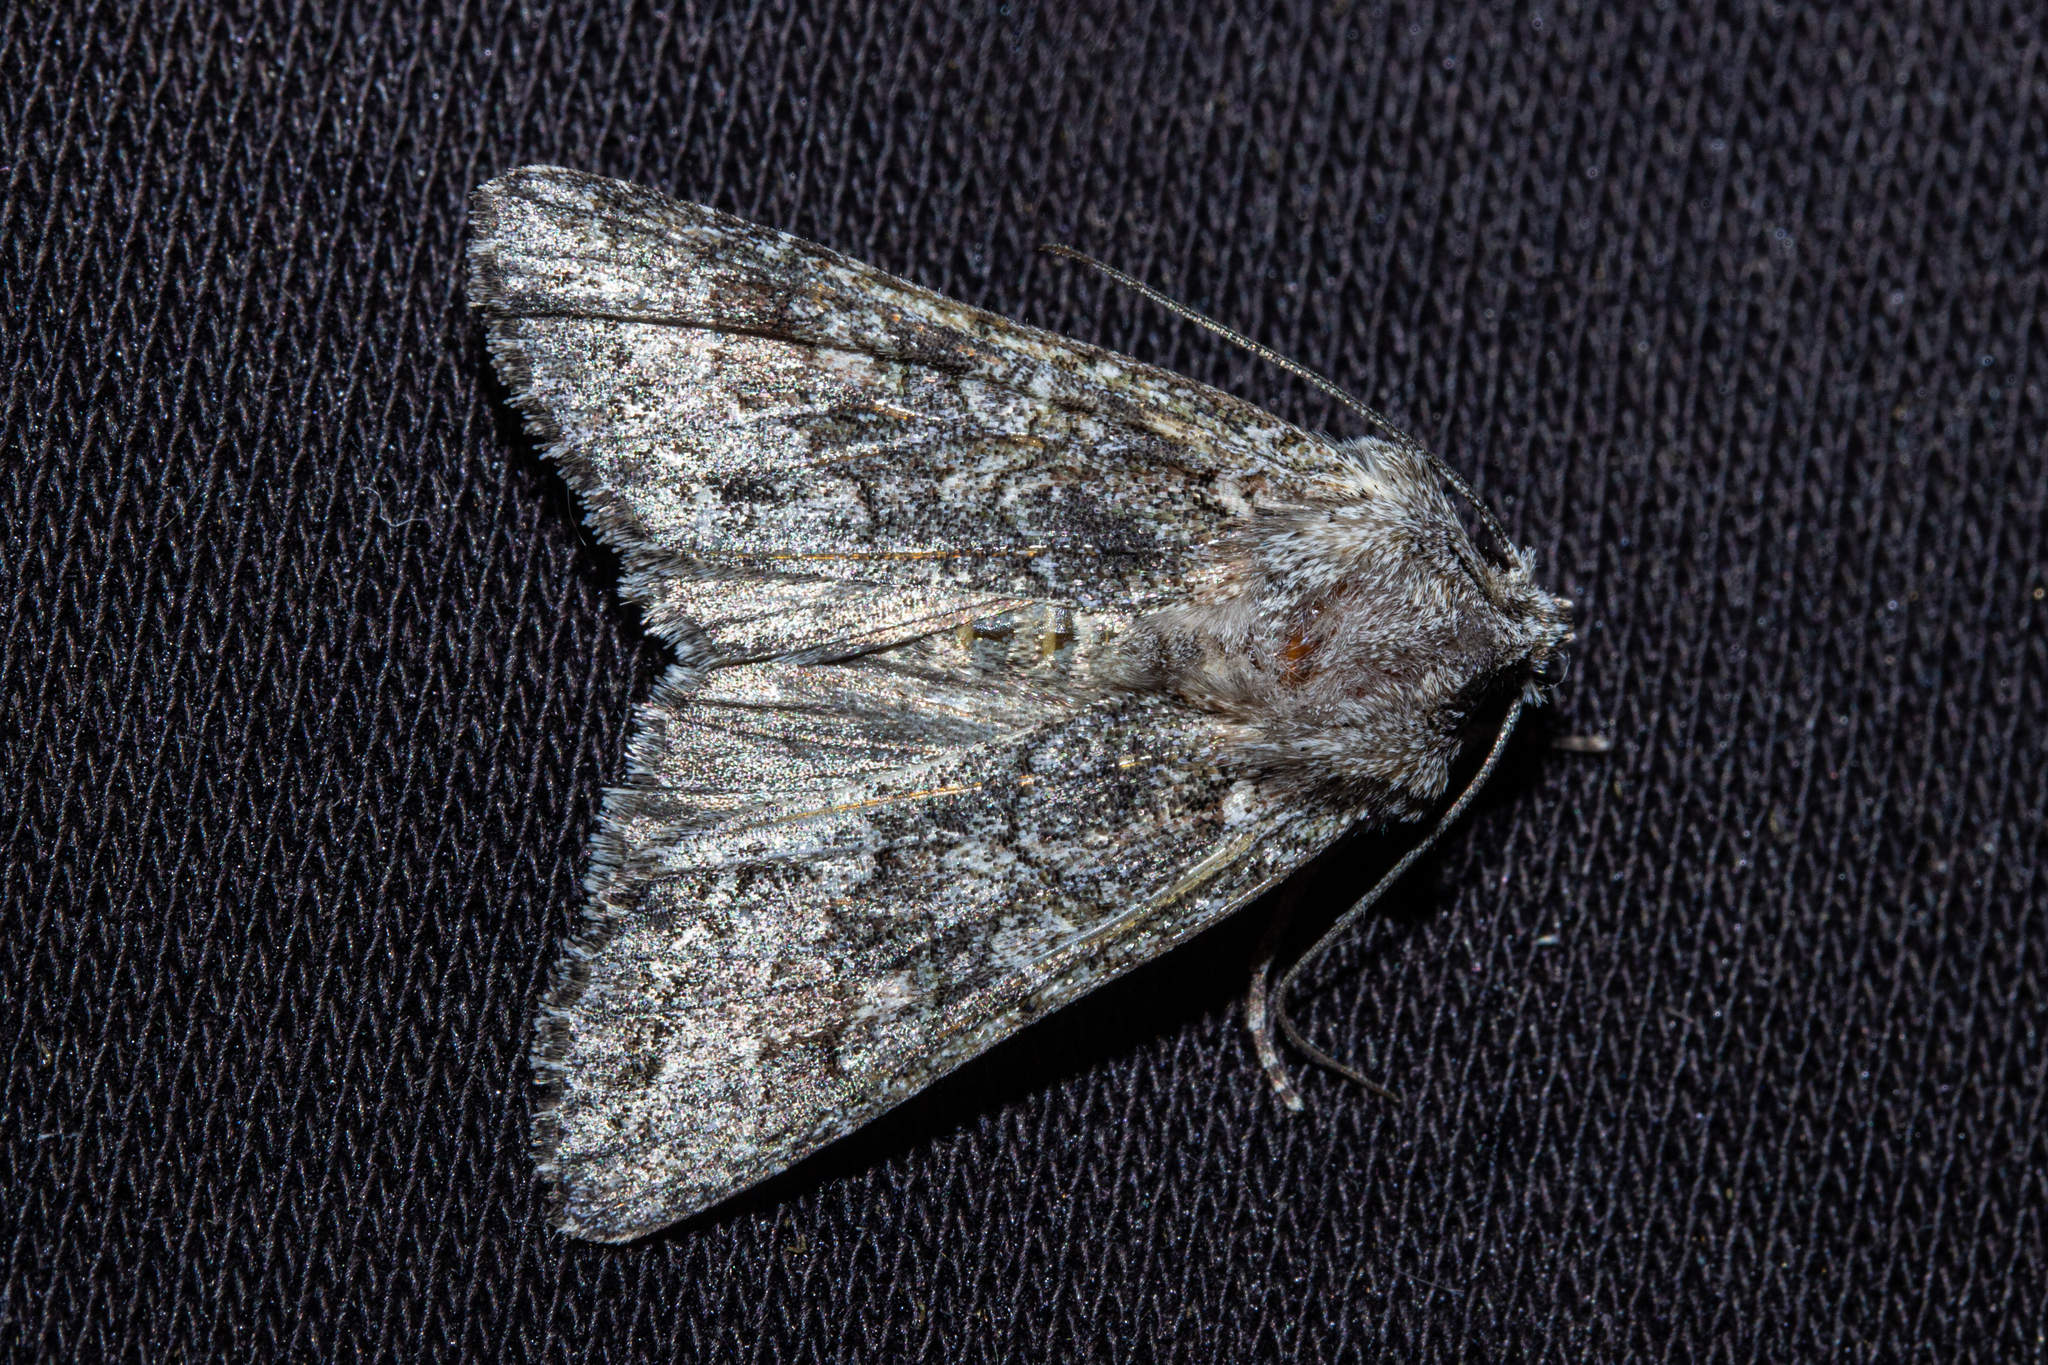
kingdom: Animalia
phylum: Arthropoda
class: Insecta
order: Lepidoptera
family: Noctuidae
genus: Ichneutica
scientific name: Ichneutica mutans
